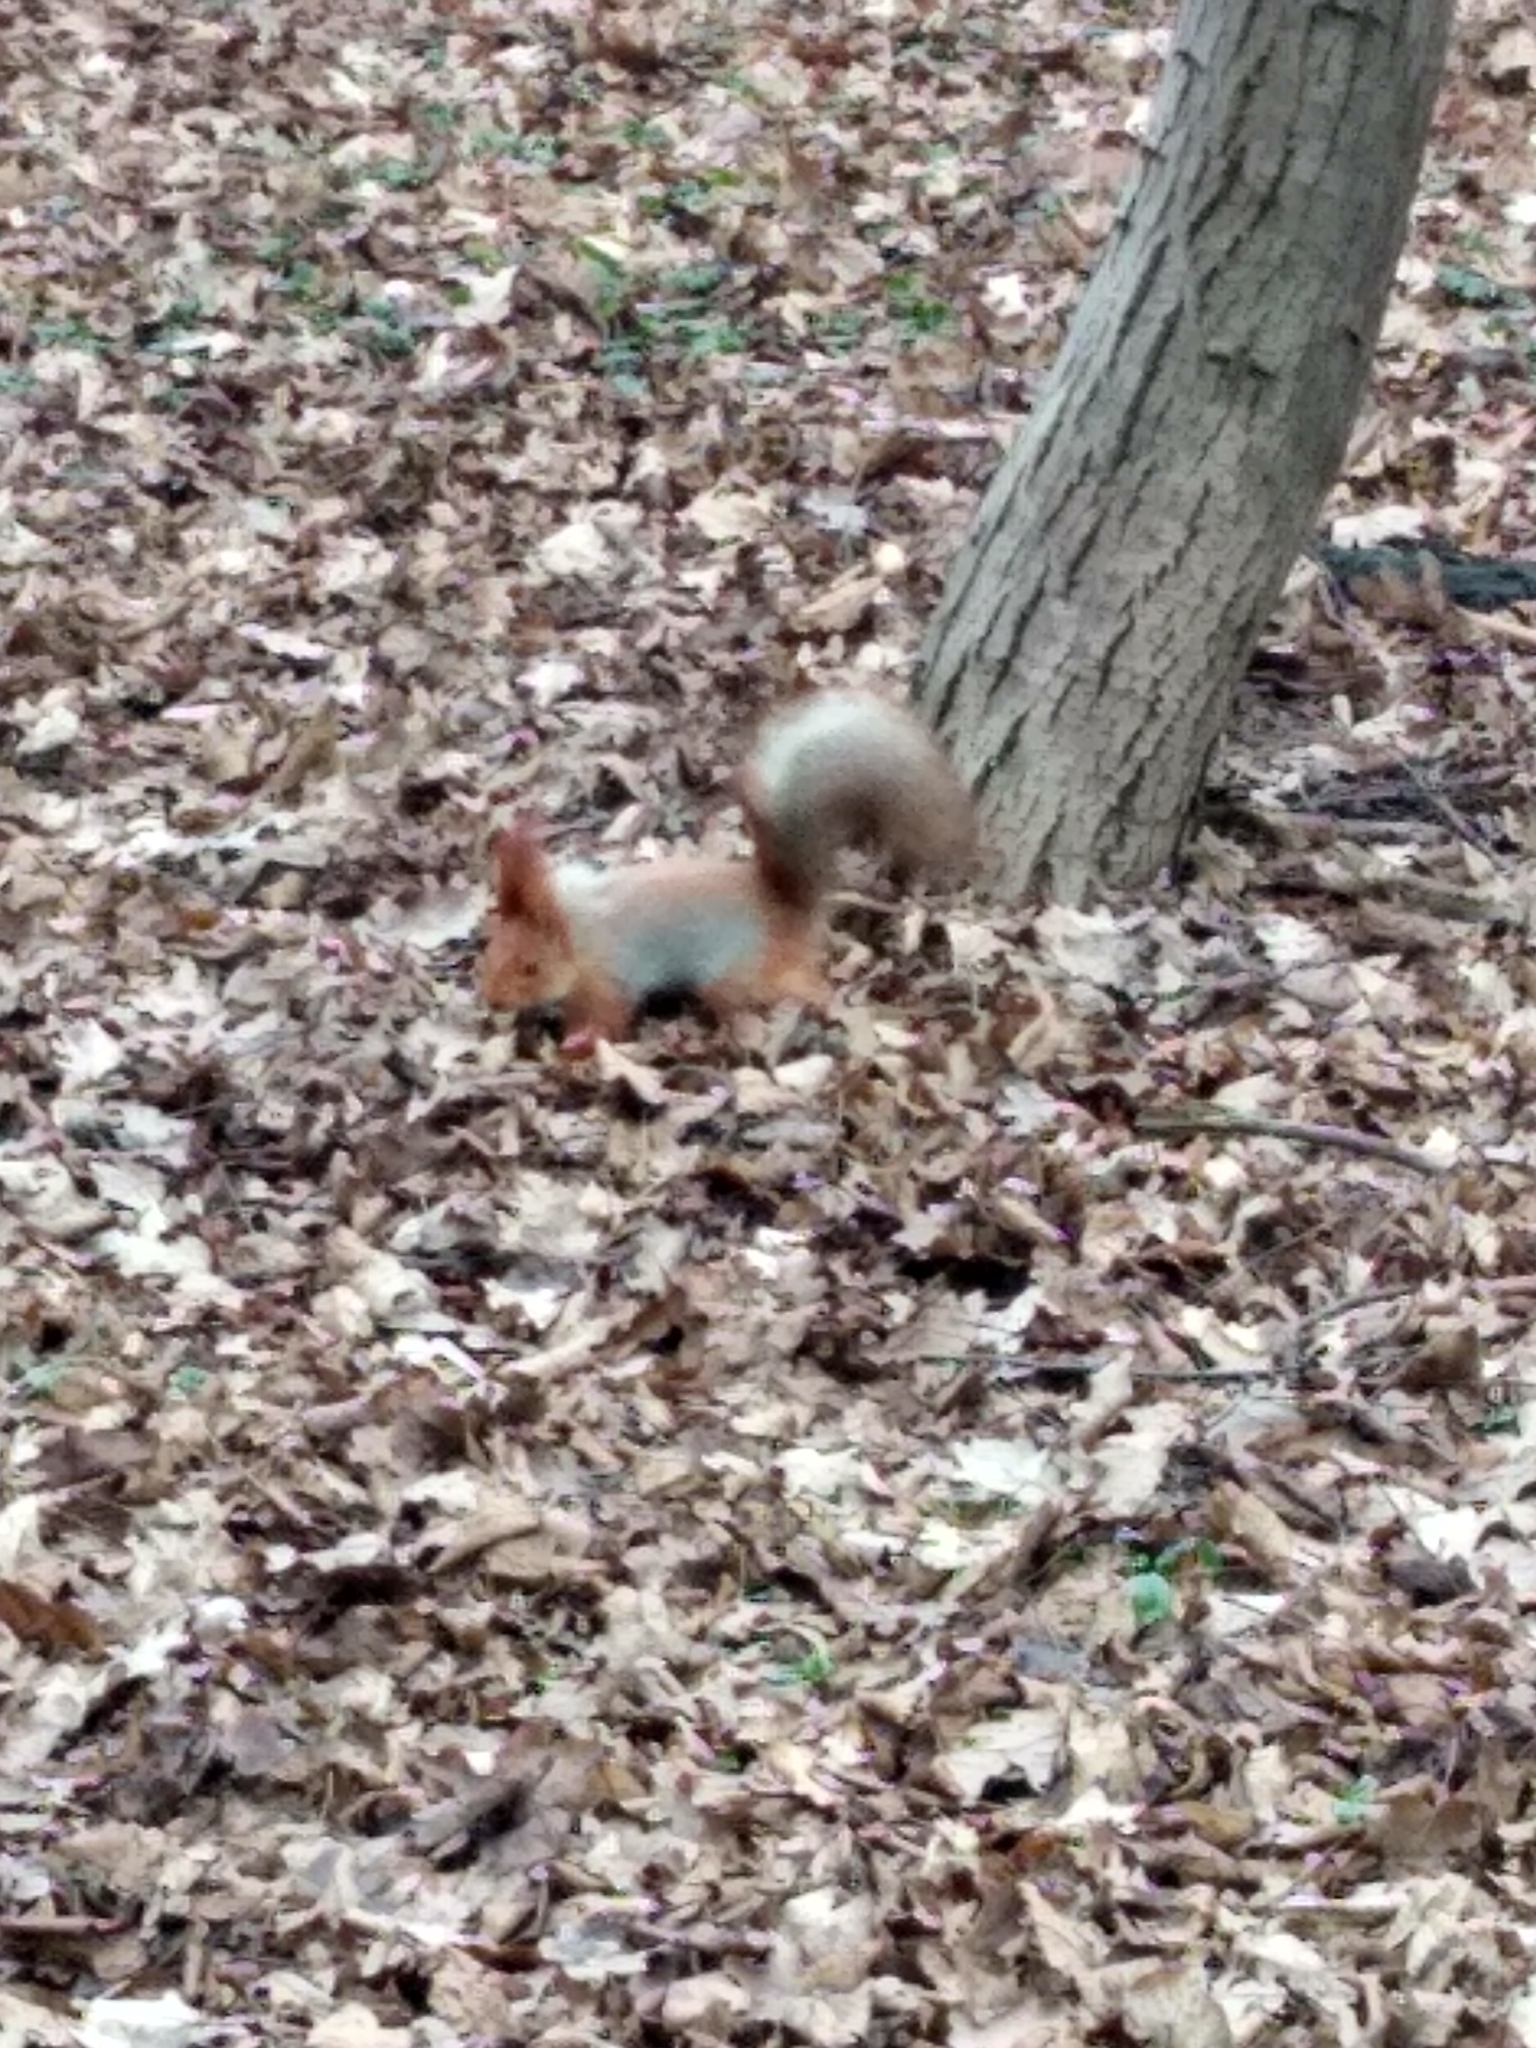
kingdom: Animalia
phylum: Chordata
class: Mammalia
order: Rodentia
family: Sciuridae
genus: Sciurus
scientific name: Sciurus vulgaris
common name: Eurasian red squirrel
